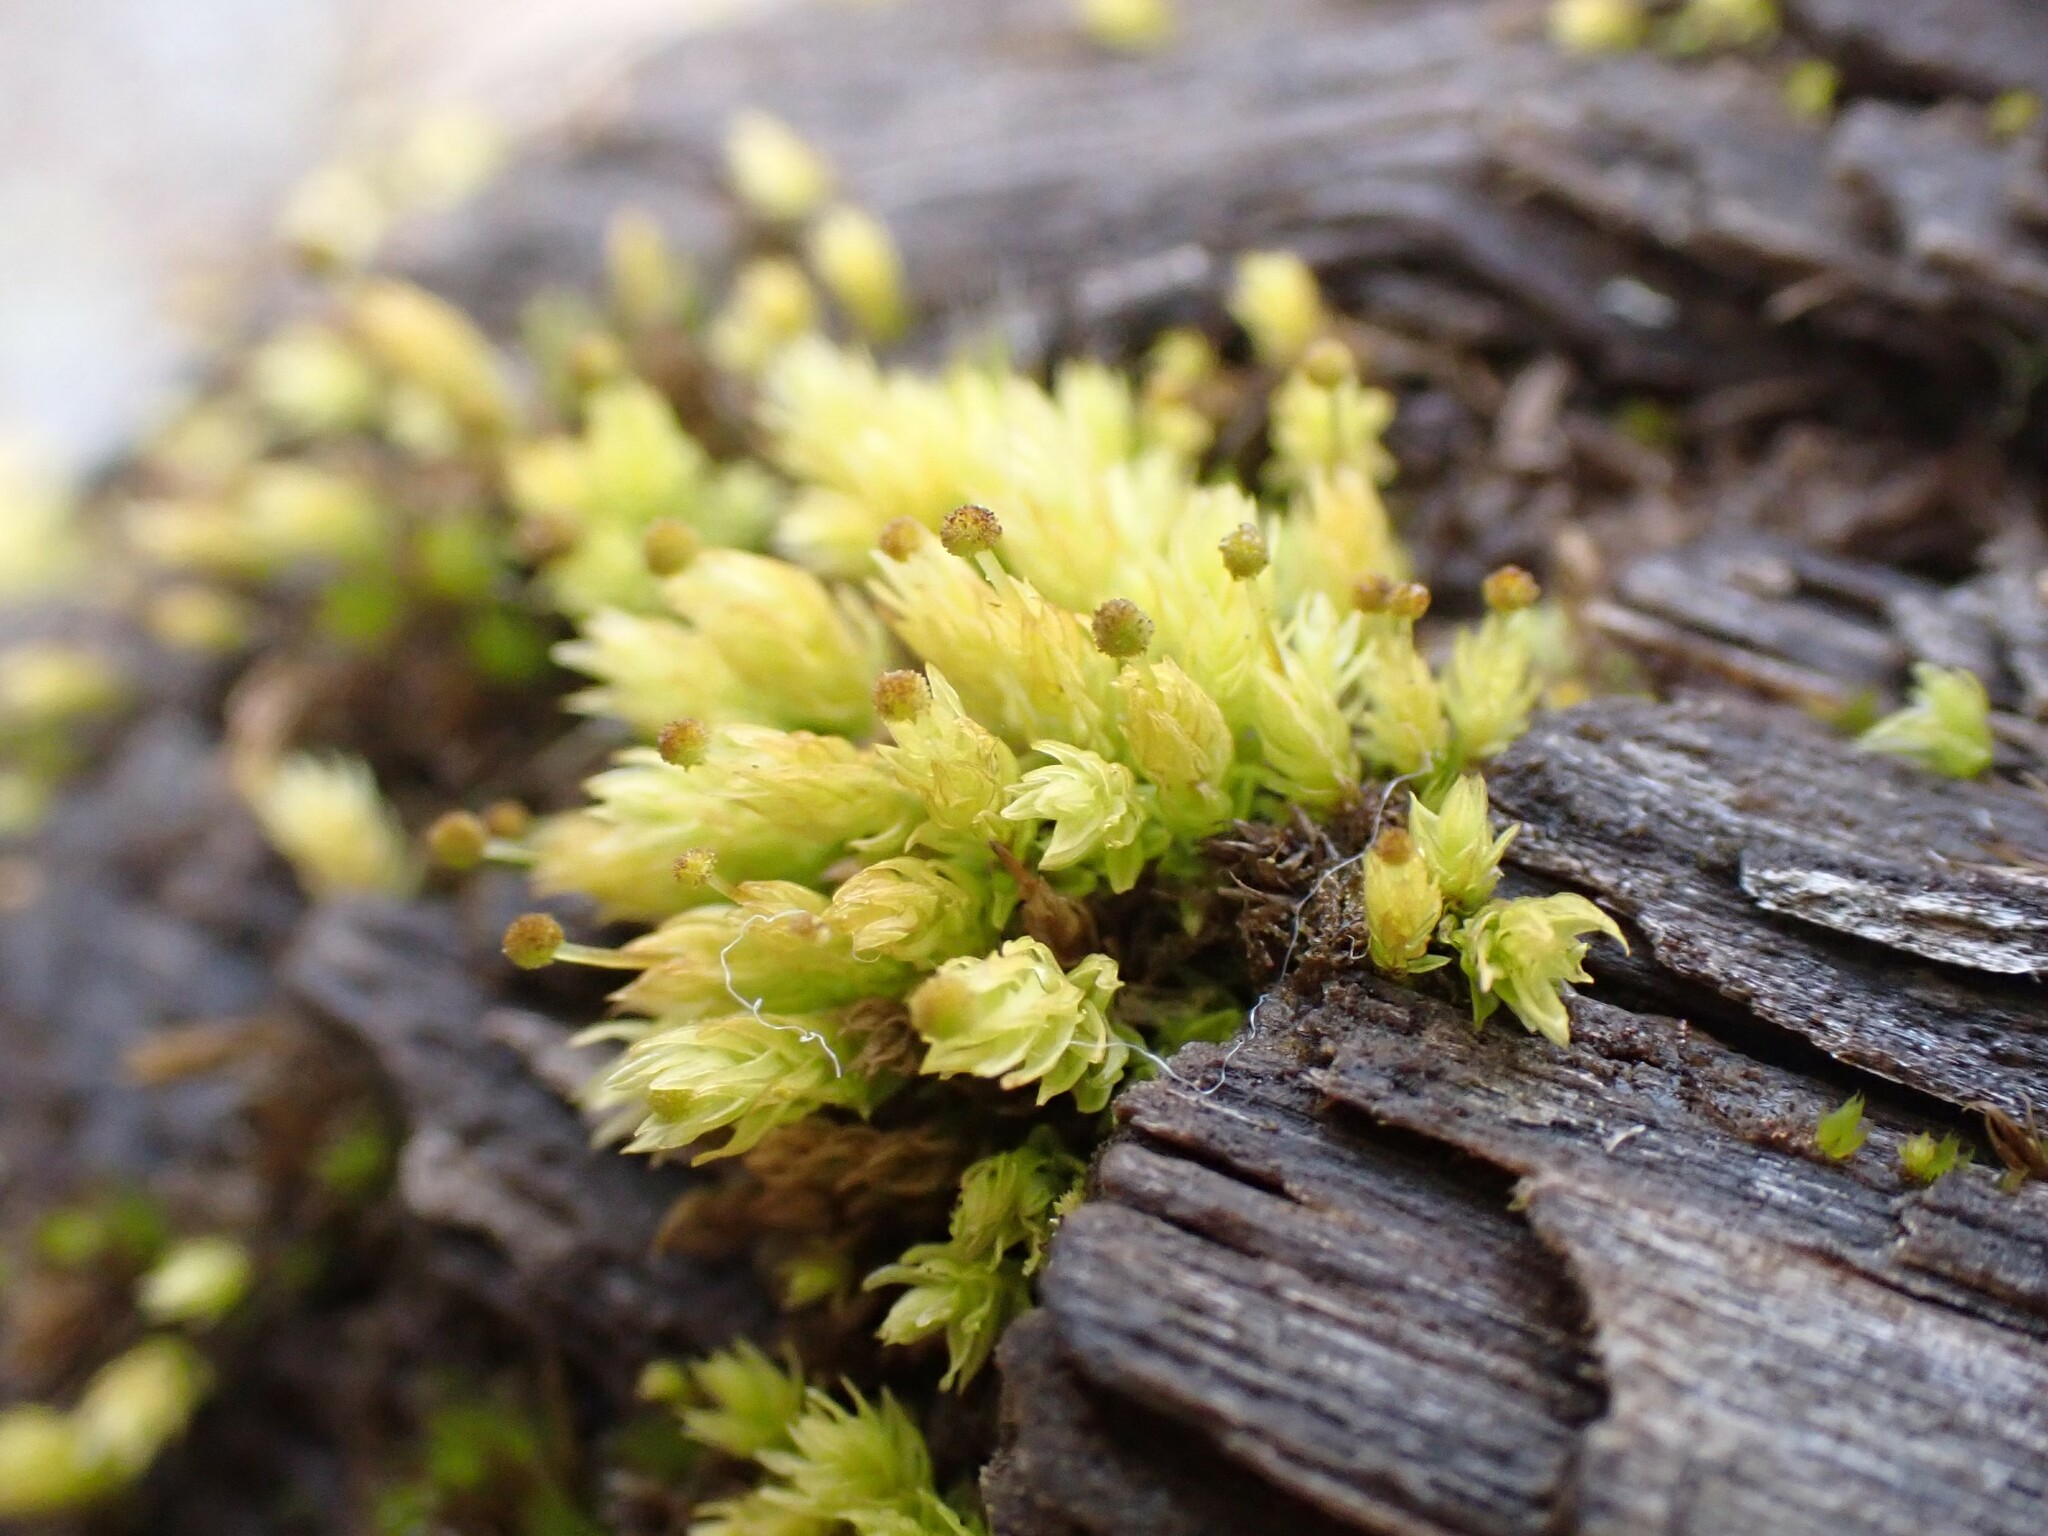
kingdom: Plantae
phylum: Bryophyta
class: Bryopsida
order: Aulacomniales
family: Aulacomniaceae
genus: Aulacomnium
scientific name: Aulacomnium androgynum
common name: Little groove moss
